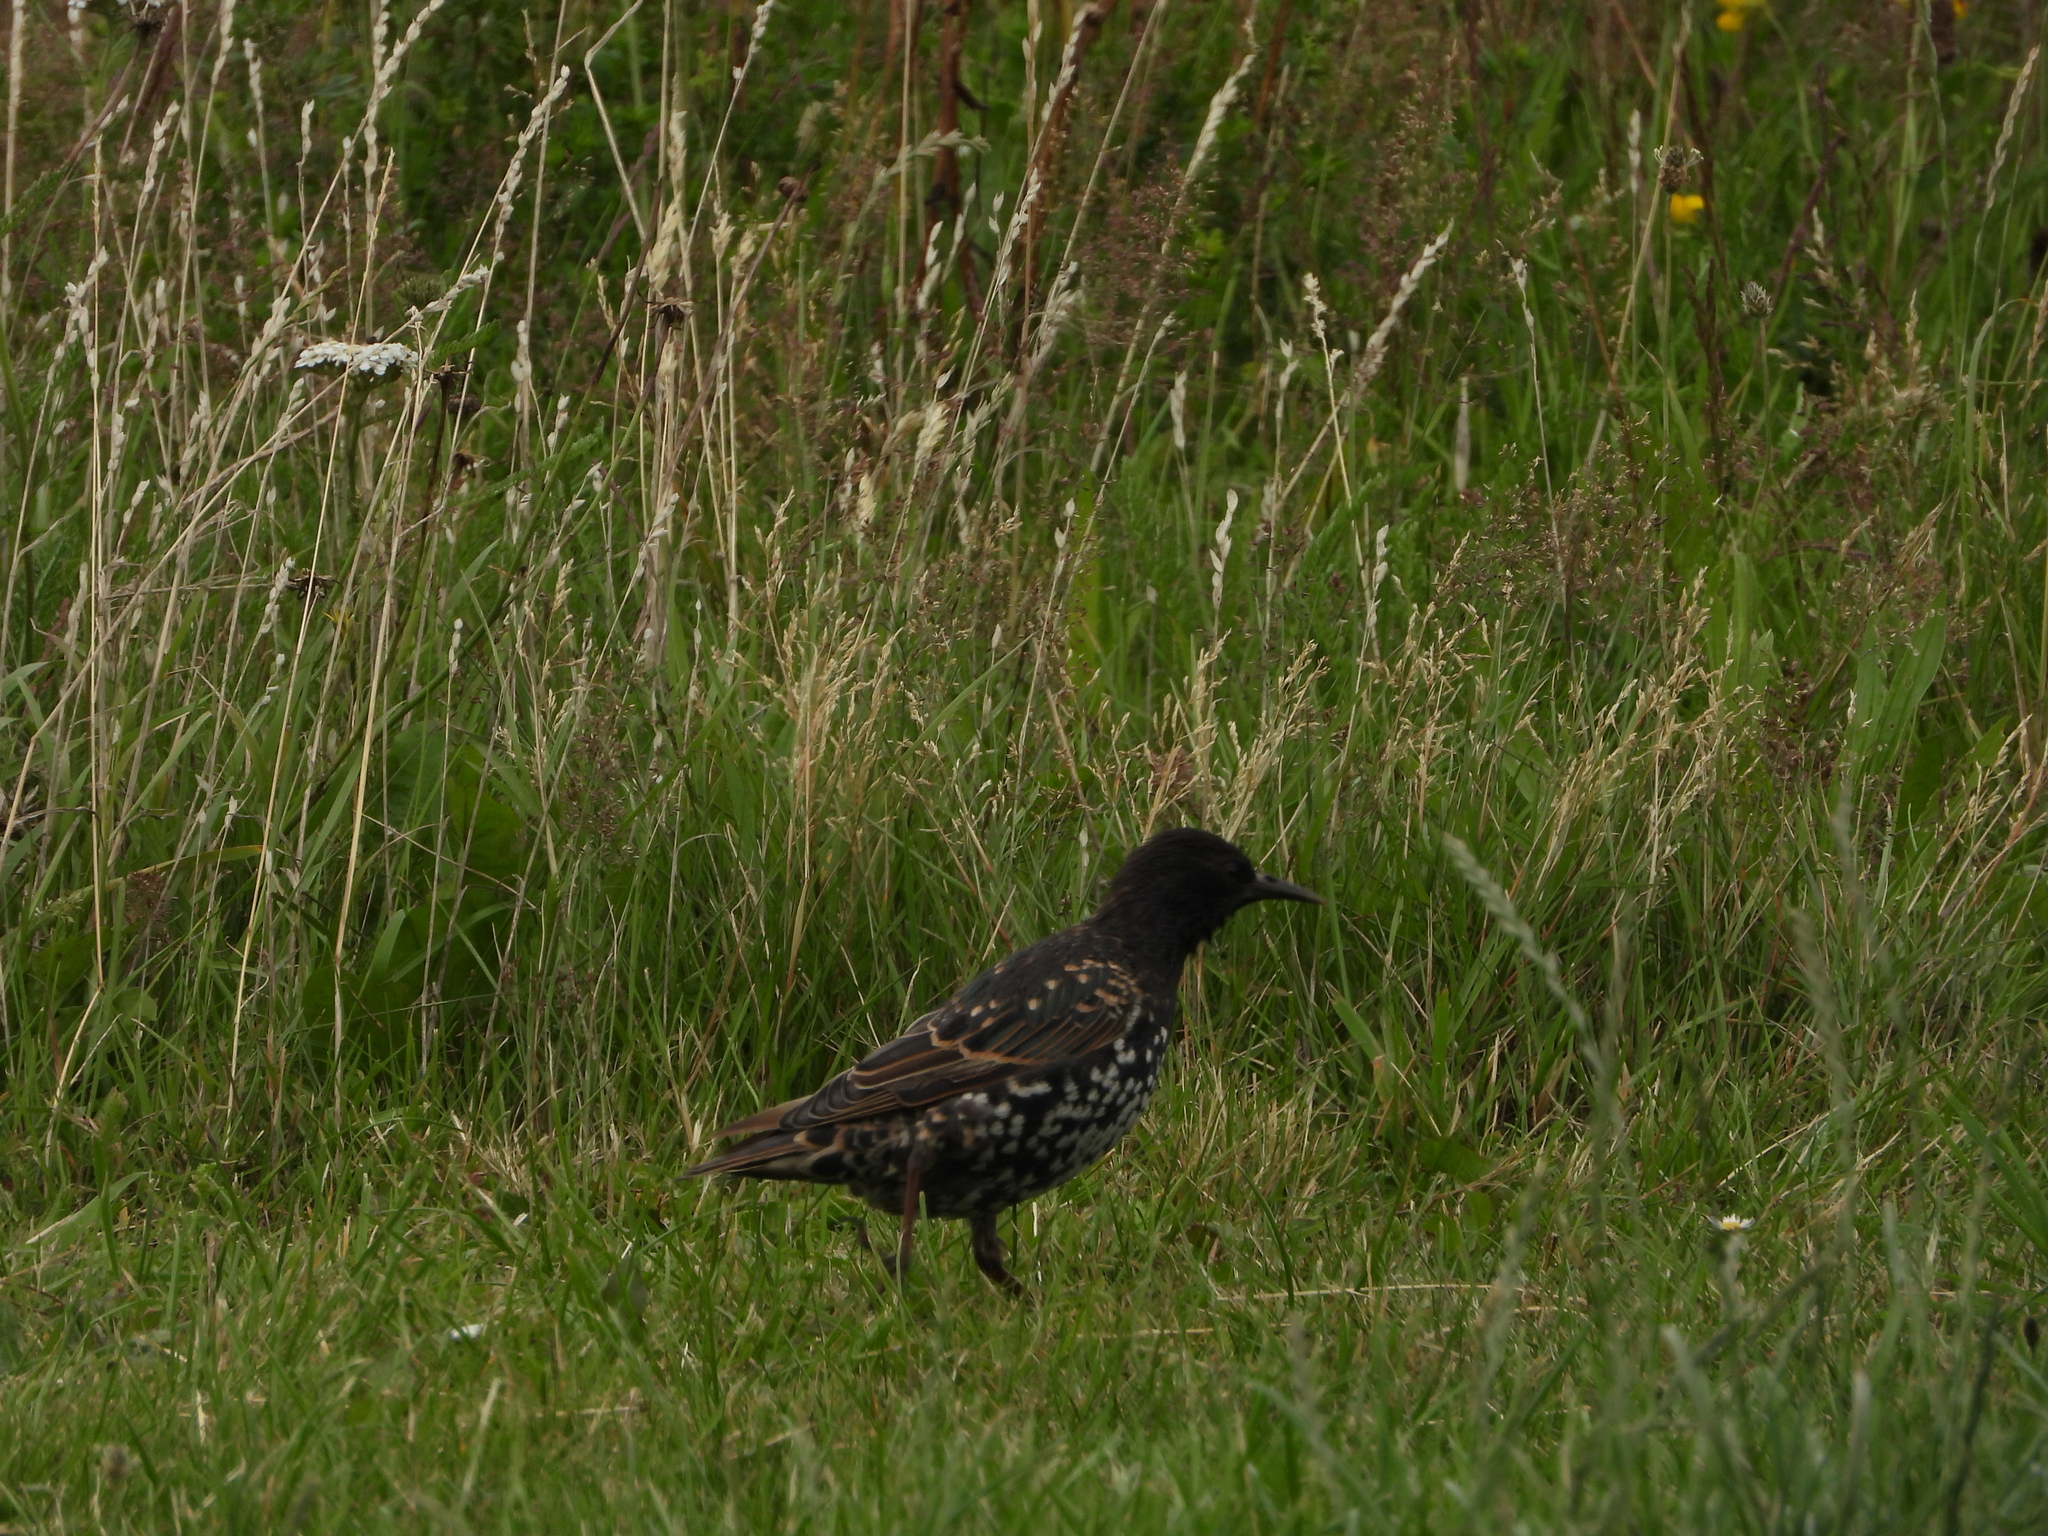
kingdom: Animalia
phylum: Chordata
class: Aves
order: Passeriformes
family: Sturnidae
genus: Sturnus
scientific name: Sturnus vulgaris
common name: Common starling
